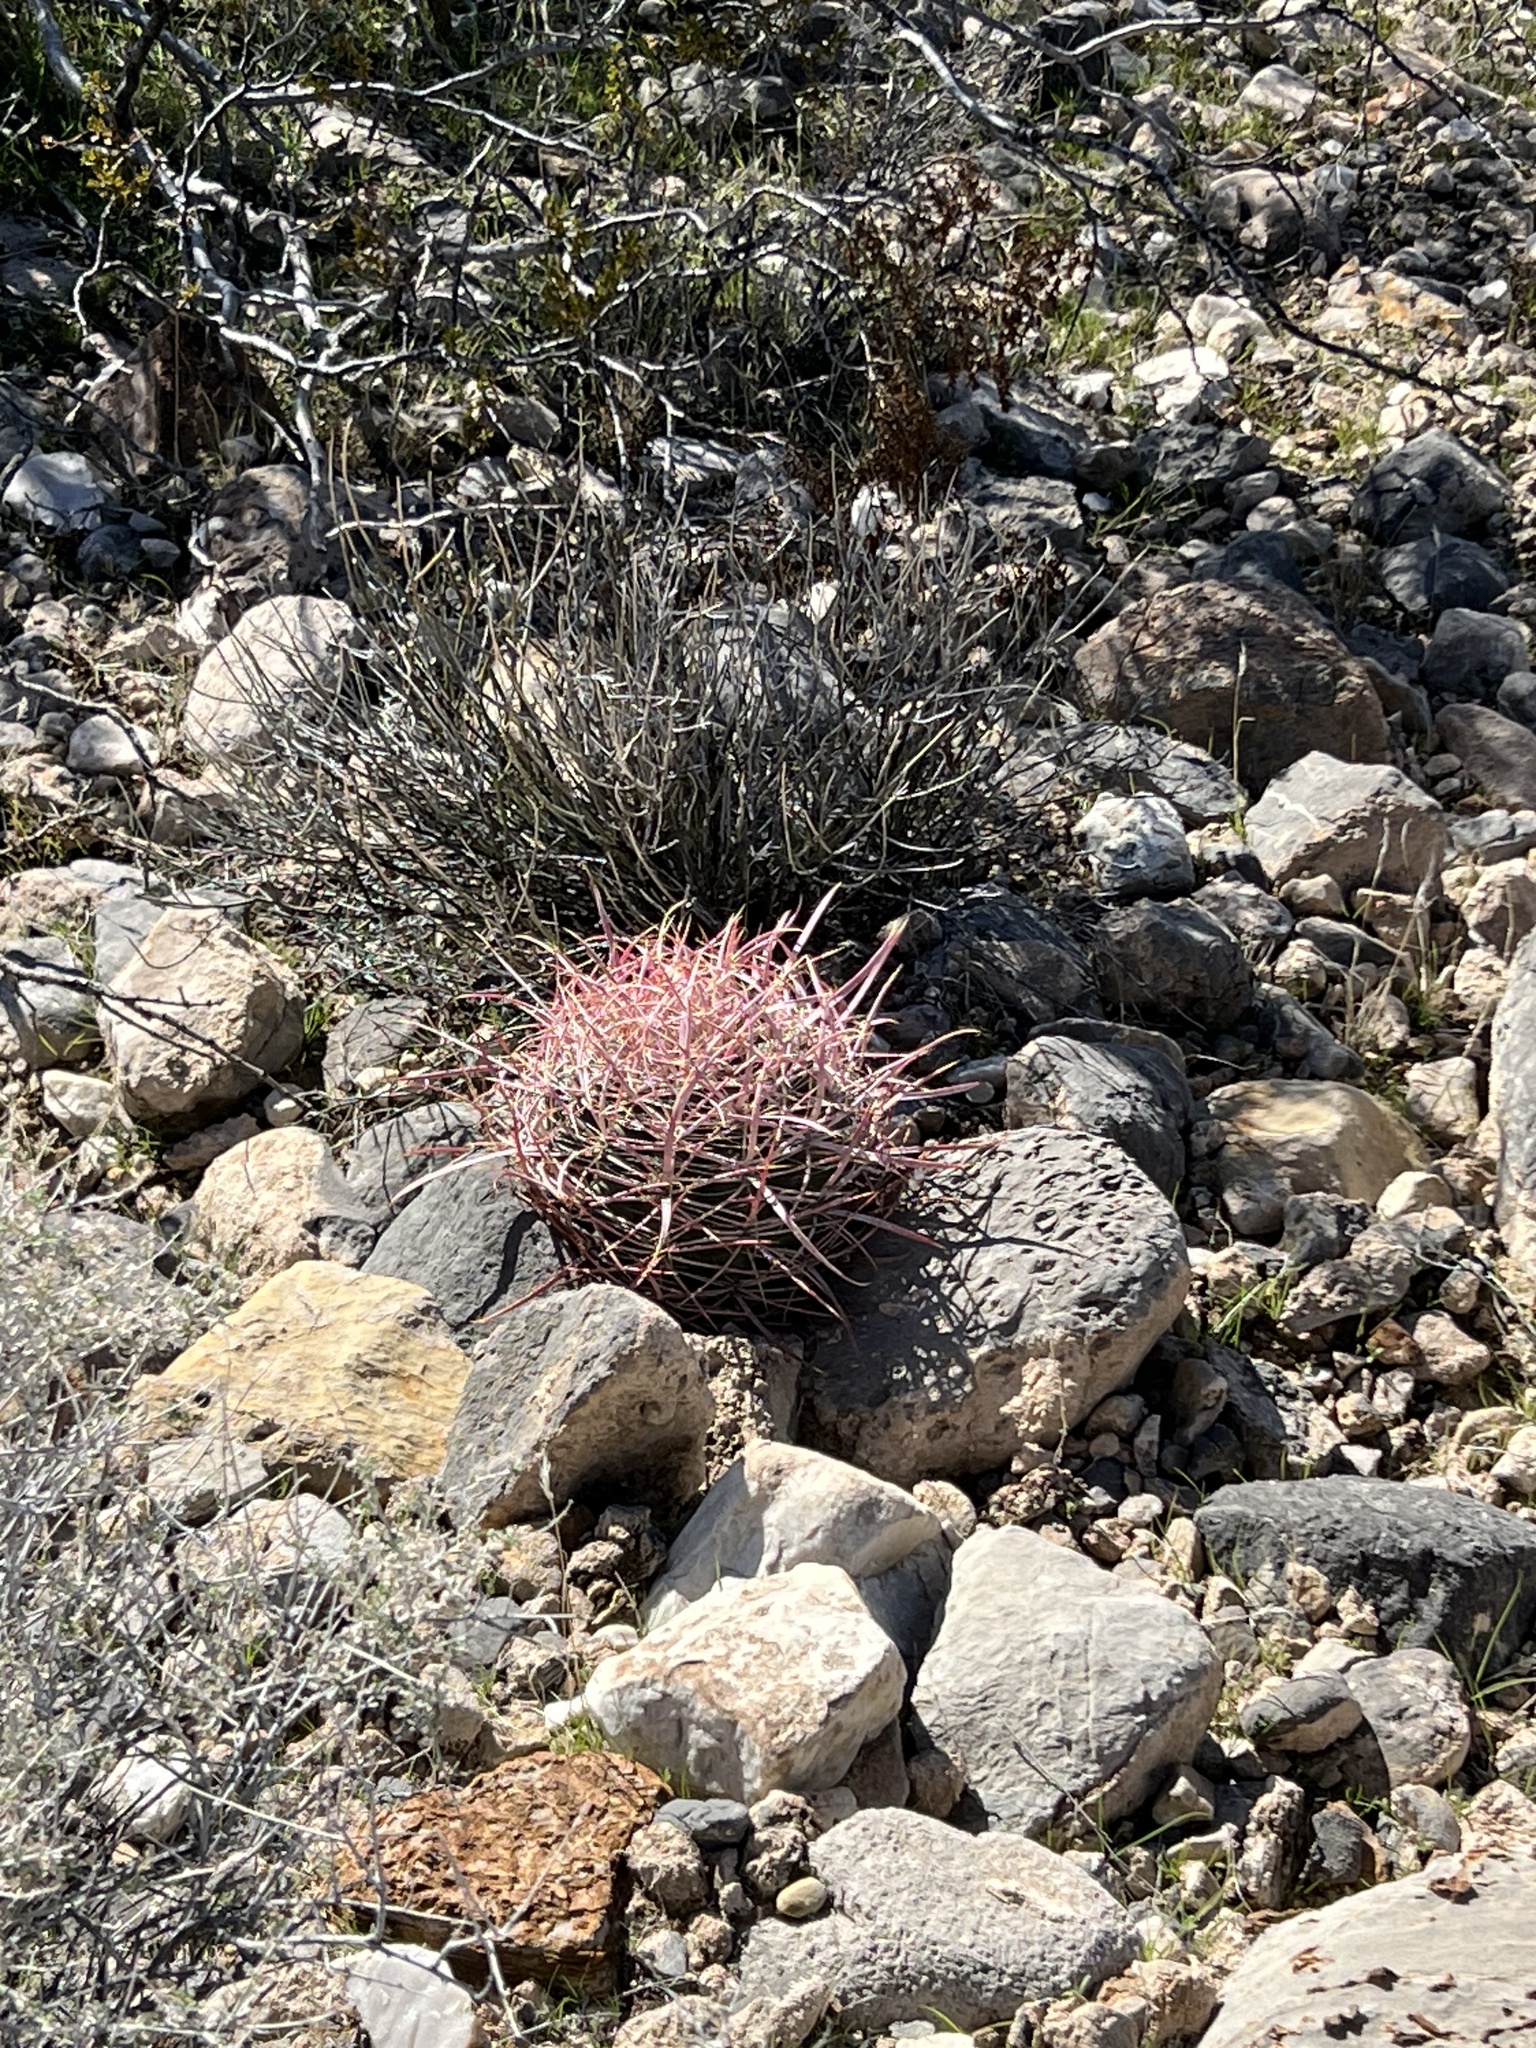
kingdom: Plantae
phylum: Tracheophyta
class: Magnoliopsida
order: Caryophyllales
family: Cactaceae
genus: Ferocactus
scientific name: Ferocactus cylindraceus
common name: California barrel cactus
